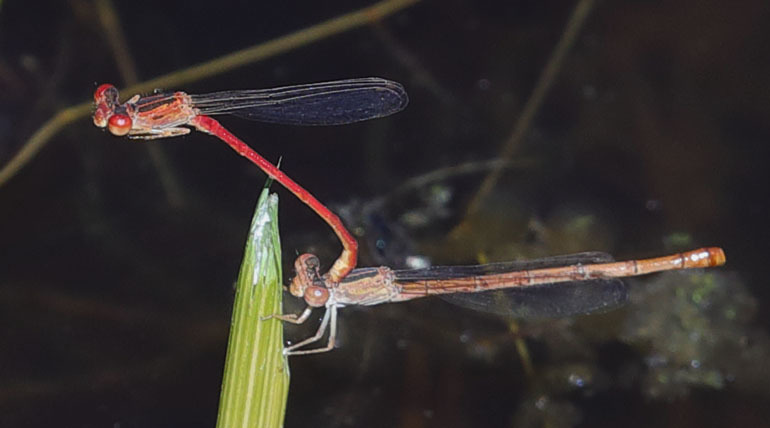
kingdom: Animalia
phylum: Arthropoda
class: Insecta
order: Odonata
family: Coenagrionidae
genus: Telebasis
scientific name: Telebasis salva
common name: Desert firetail
